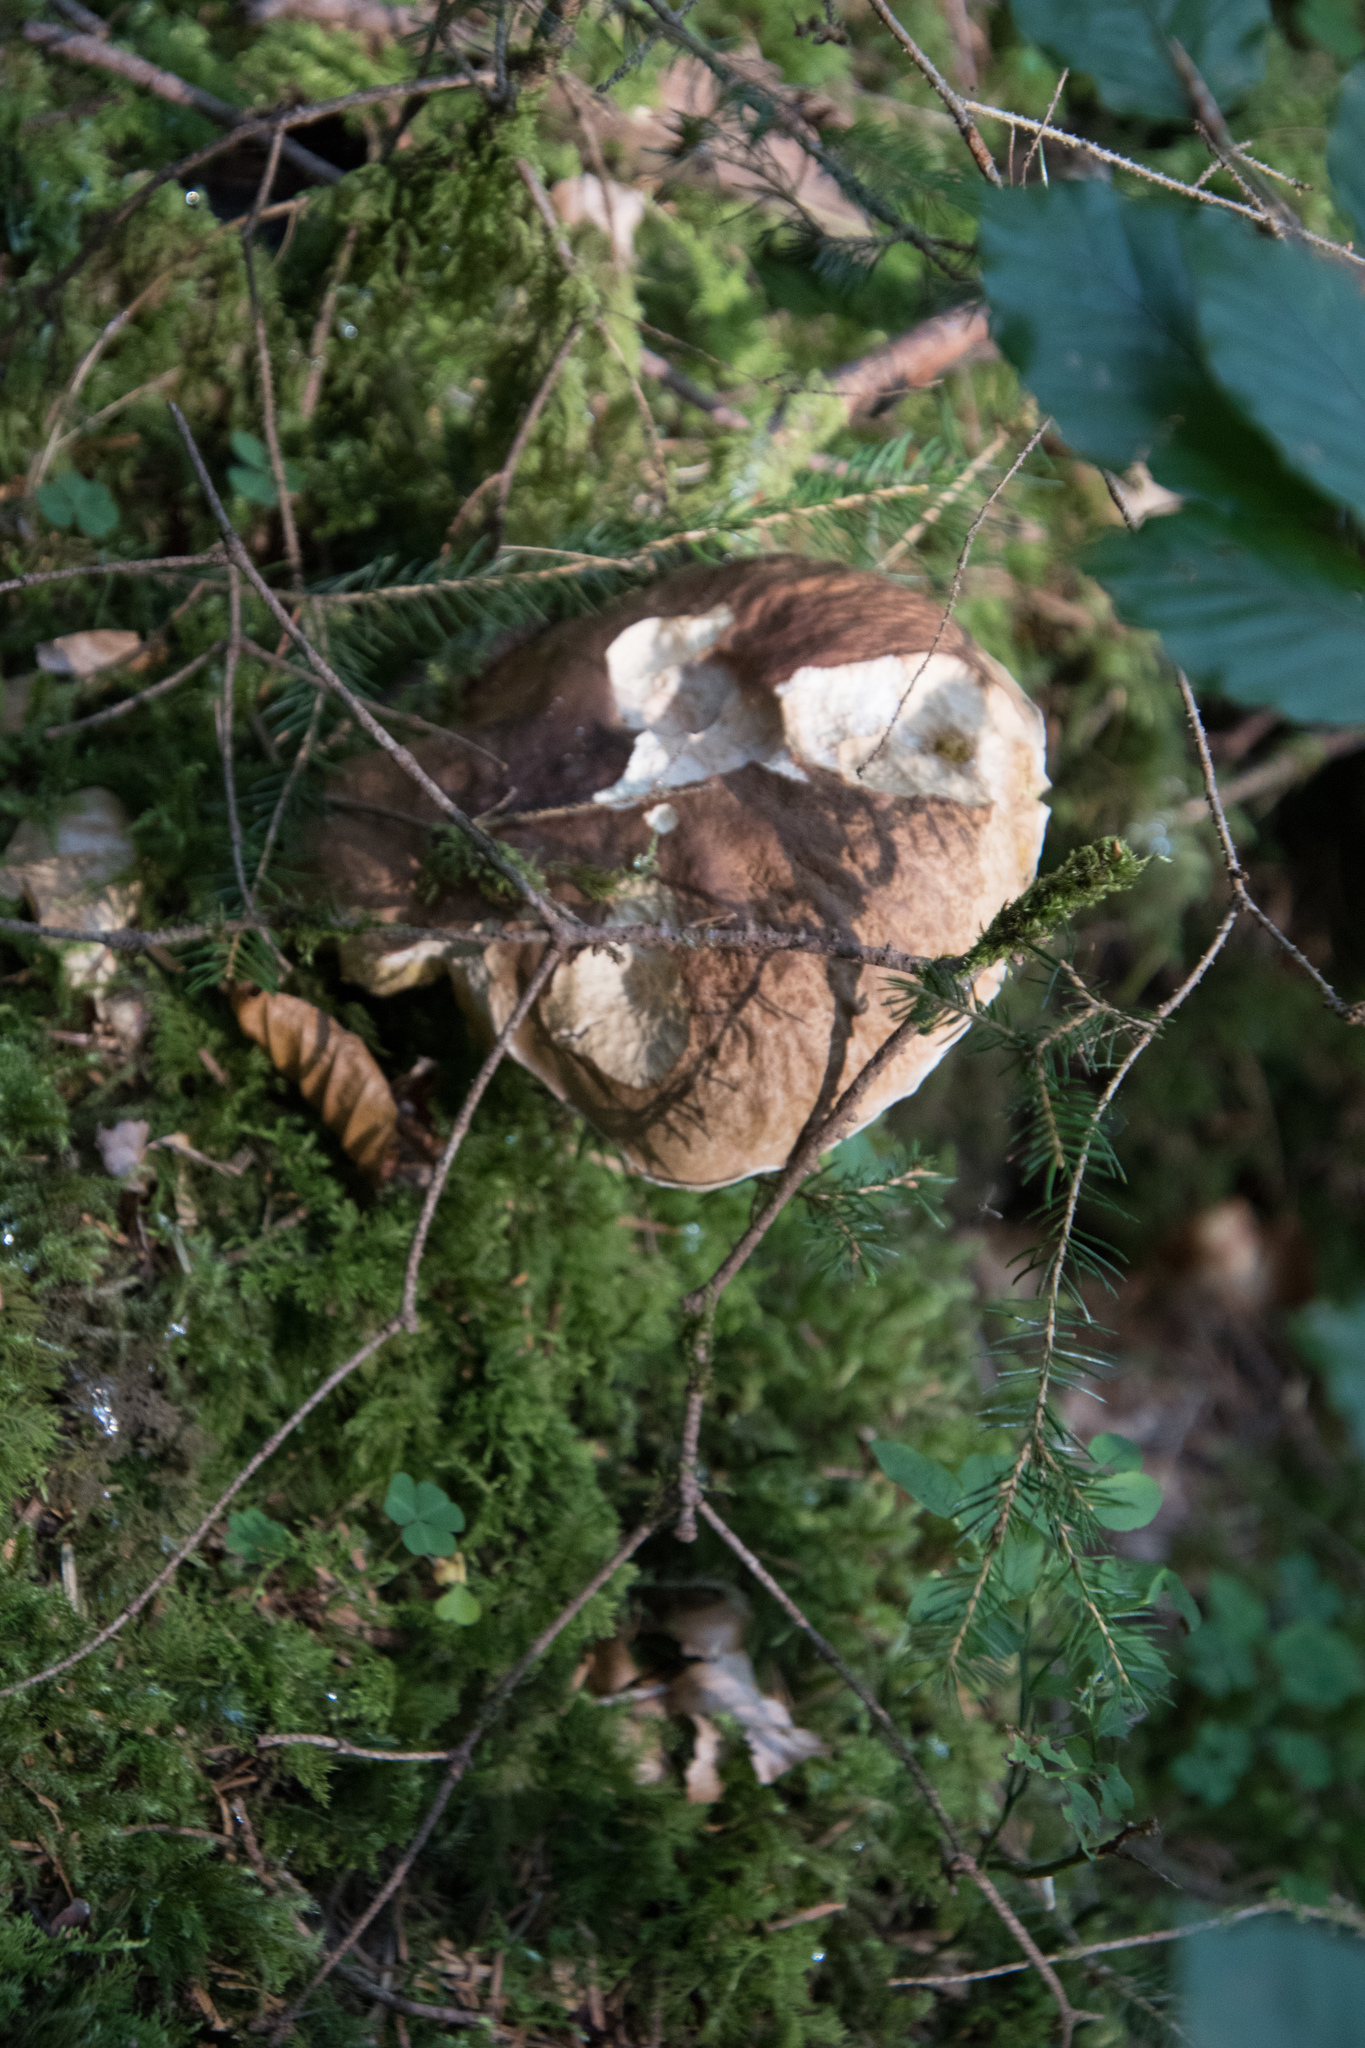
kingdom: Fungi
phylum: Basidiomycota
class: Agaricomycetes
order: Boletales
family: Boletaceae
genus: Boletus
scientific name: Boletus edulis
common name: Cep
